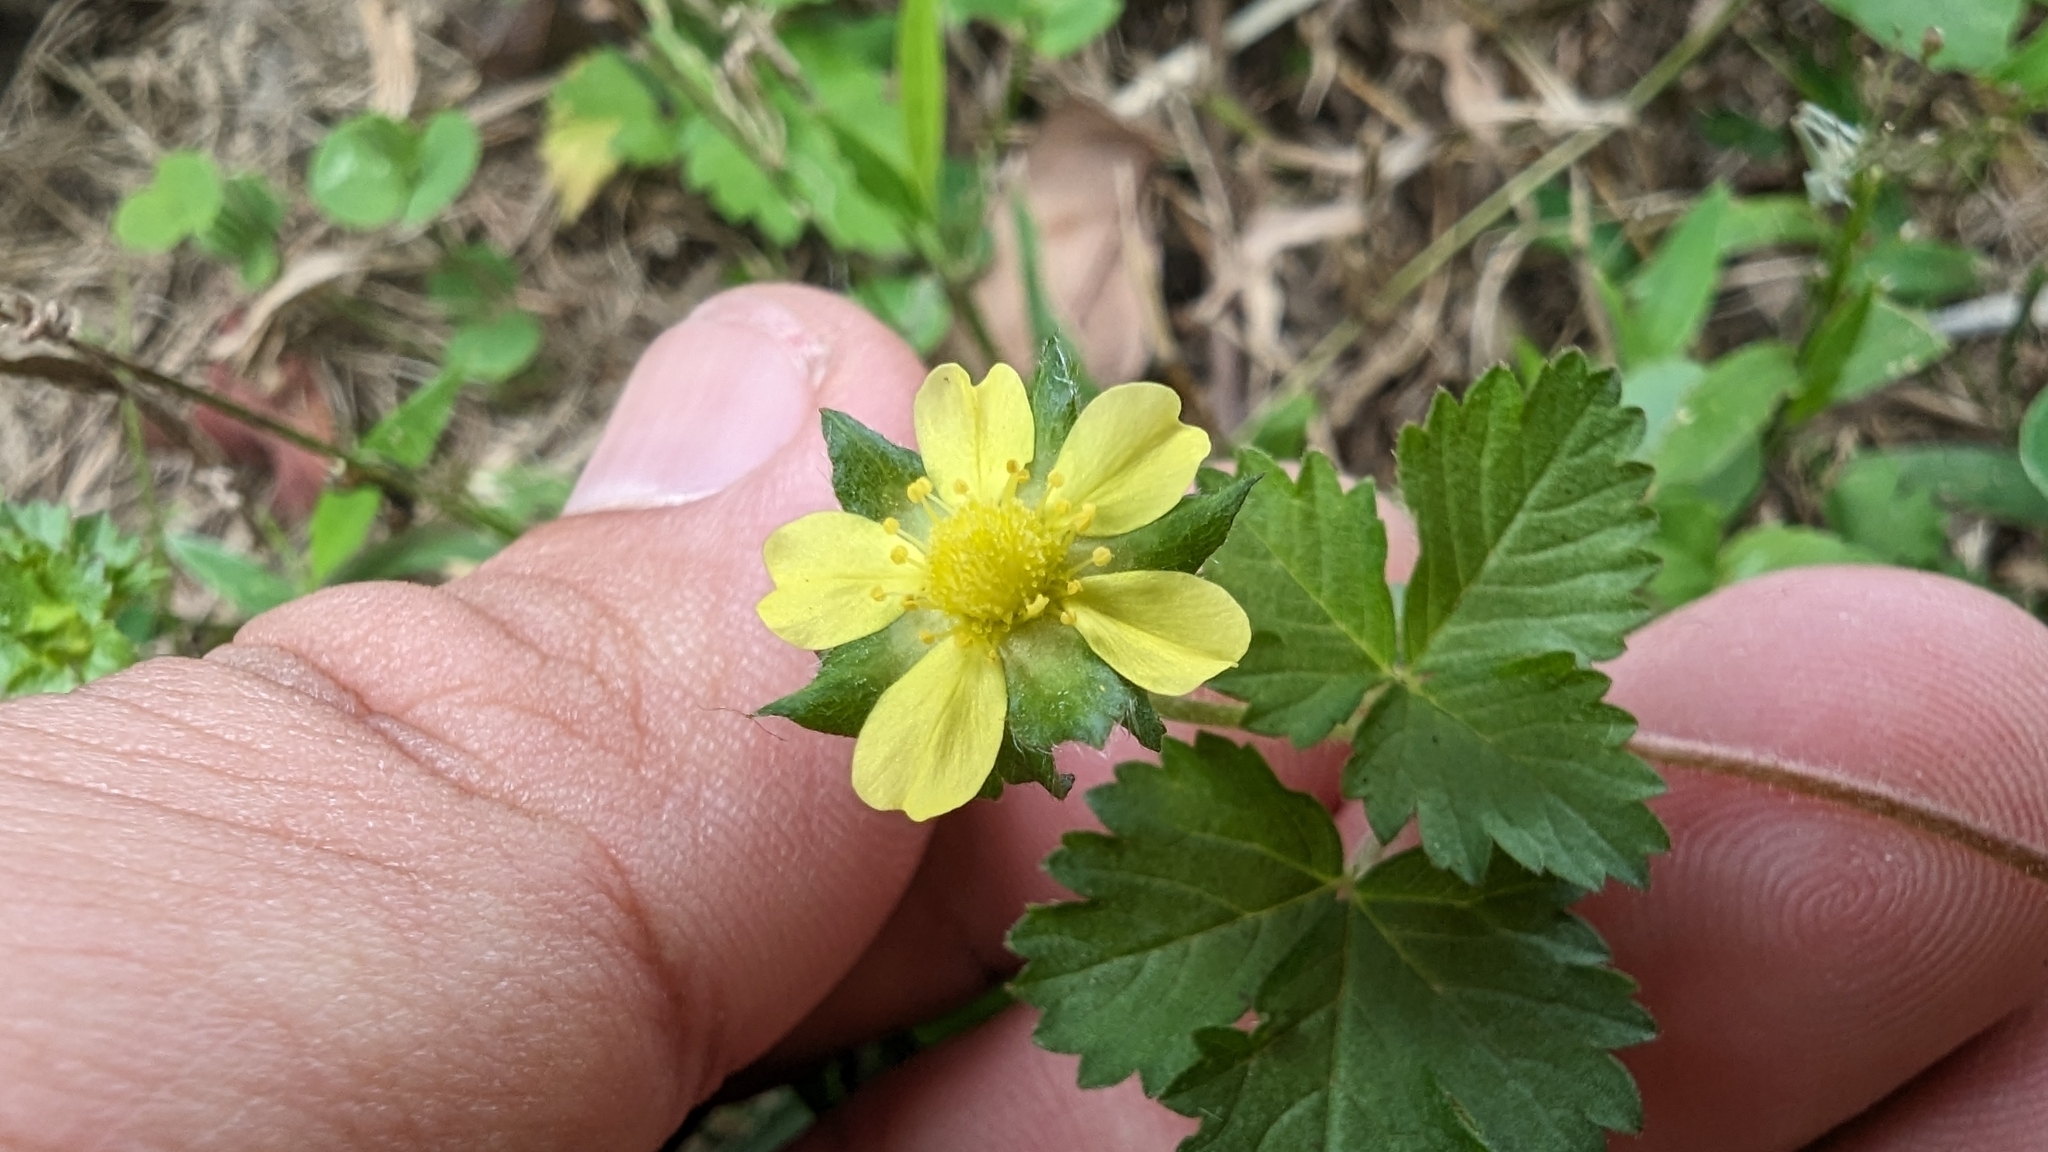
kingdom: Plantae
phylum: Tracheophyta
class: Magnoliopsida
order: Rosales
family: Rosaceae
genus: Potentilla
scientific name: Potentilla wallichiana
